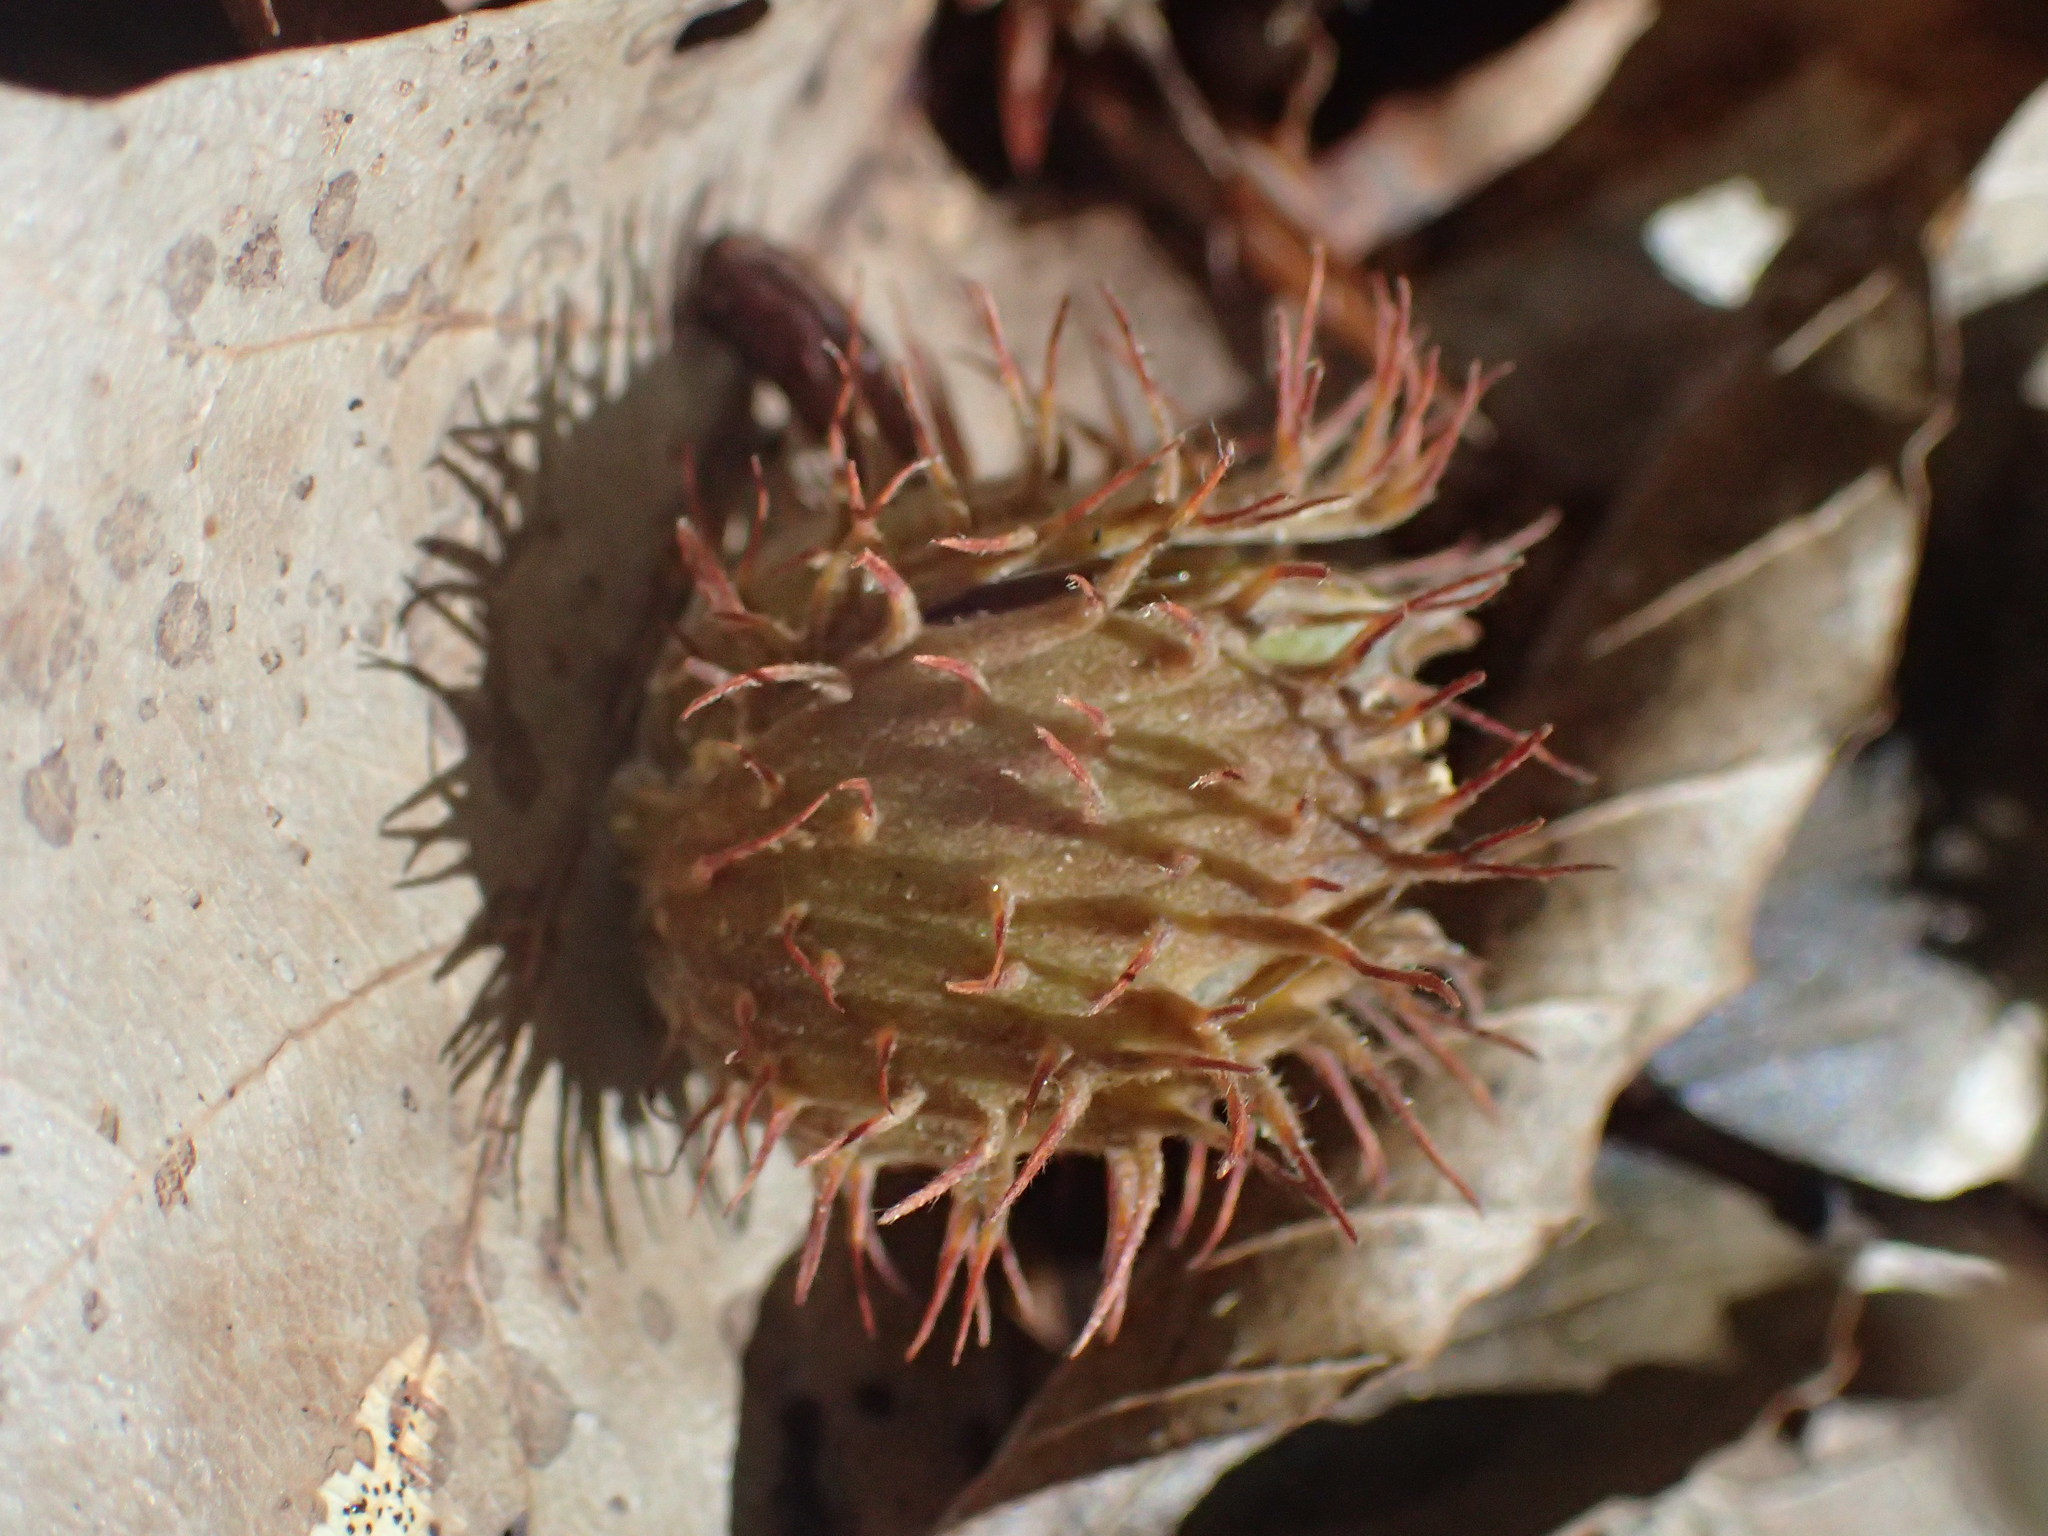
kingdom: Plantae
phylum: Tracheophyta
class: Magnoliopsida
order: Fagales
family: Fagaceae
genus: Fagus
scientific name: Fagus grandifolia
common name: American beech
